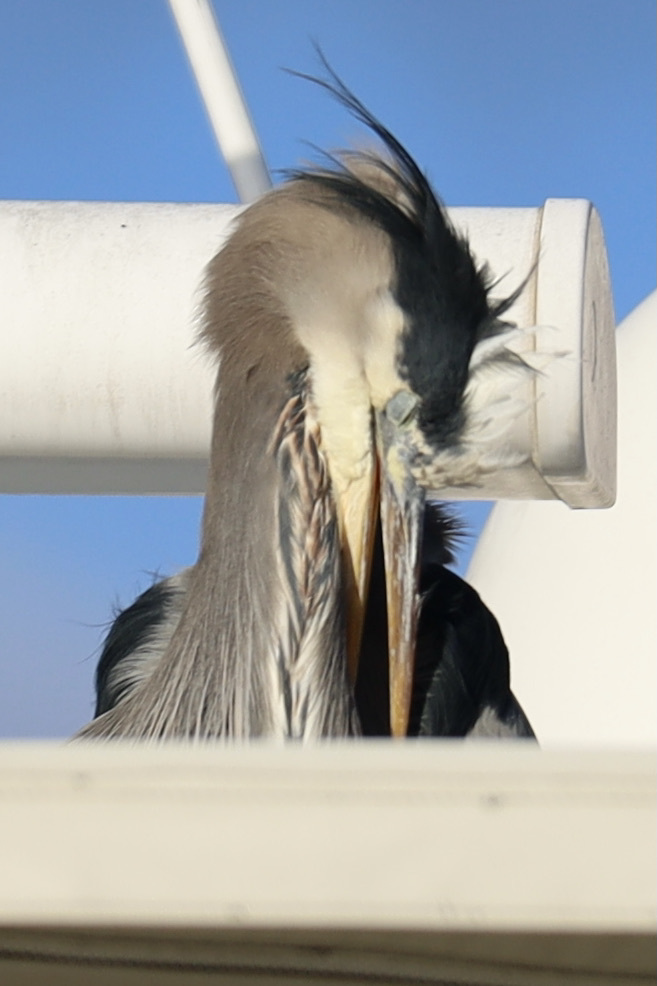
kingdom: Animalia
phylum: Chordata
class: Aves
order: Pelecaniformes
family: Ardeidae
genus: Ardea
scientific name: Ardea herodias
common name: Great blue heron
